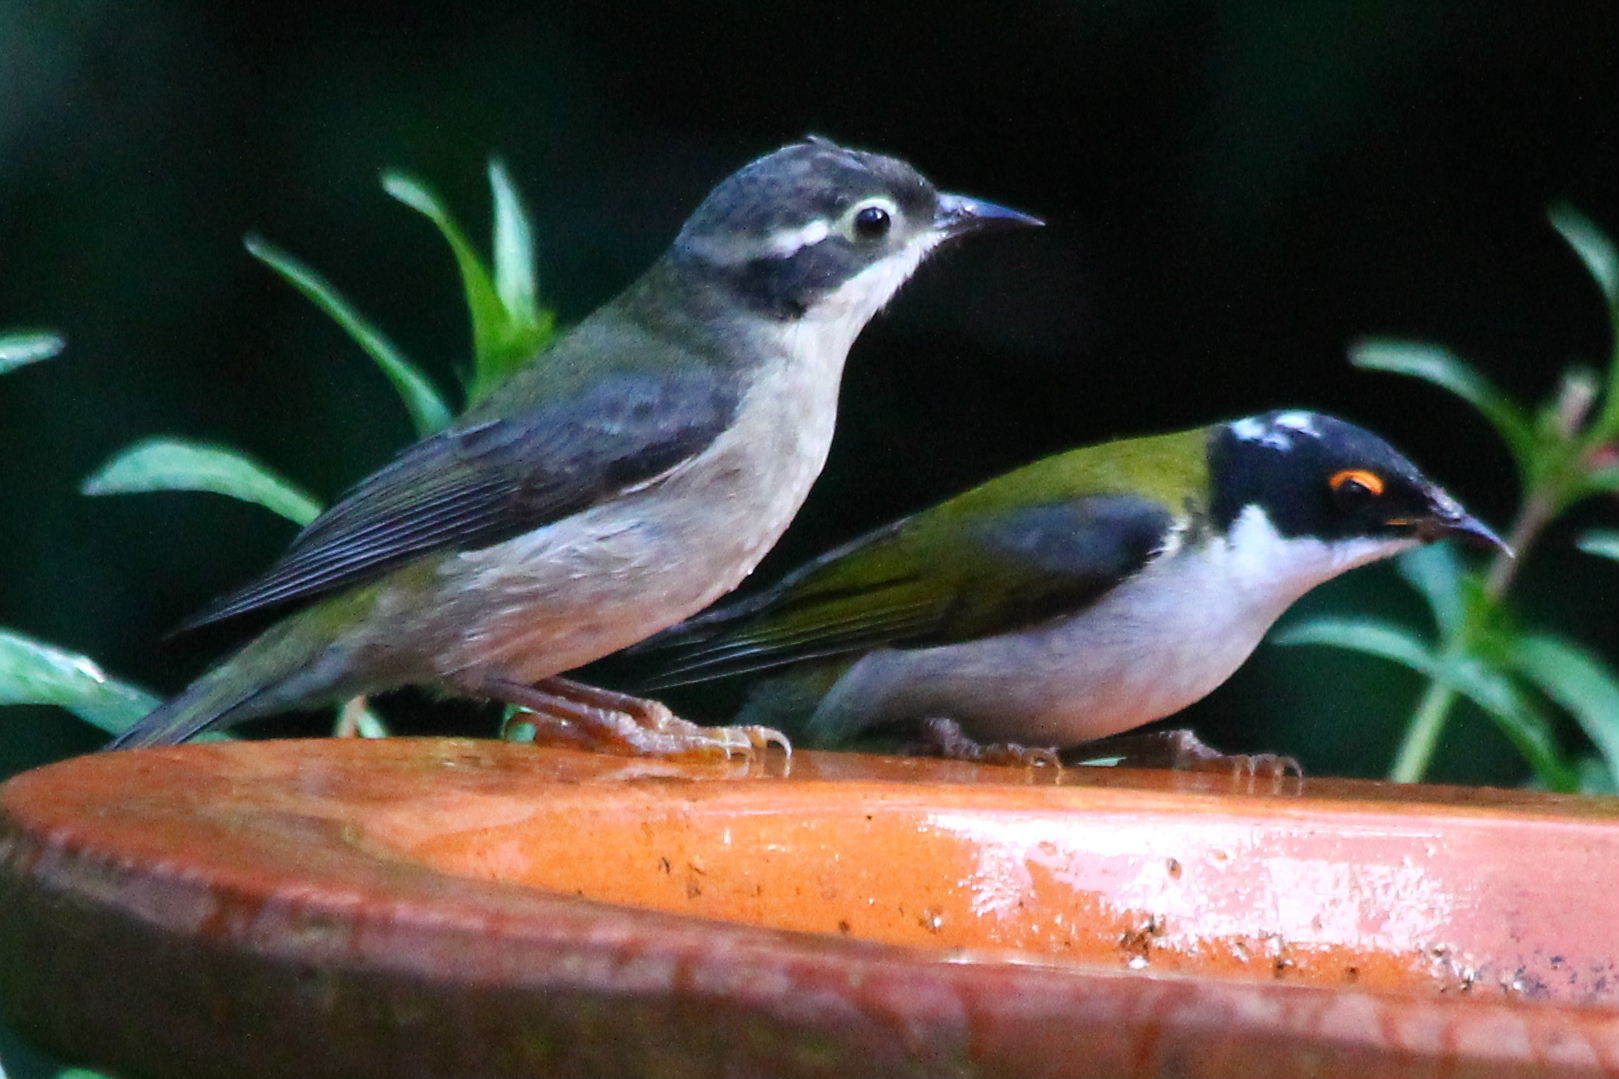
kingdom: Animalia
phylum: Chordata
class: Aves
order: Passeriformes
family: Meliphagidae
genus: Melithreptus
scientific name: Melithreptus brevirostris
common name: Brown-headed honeyeater
